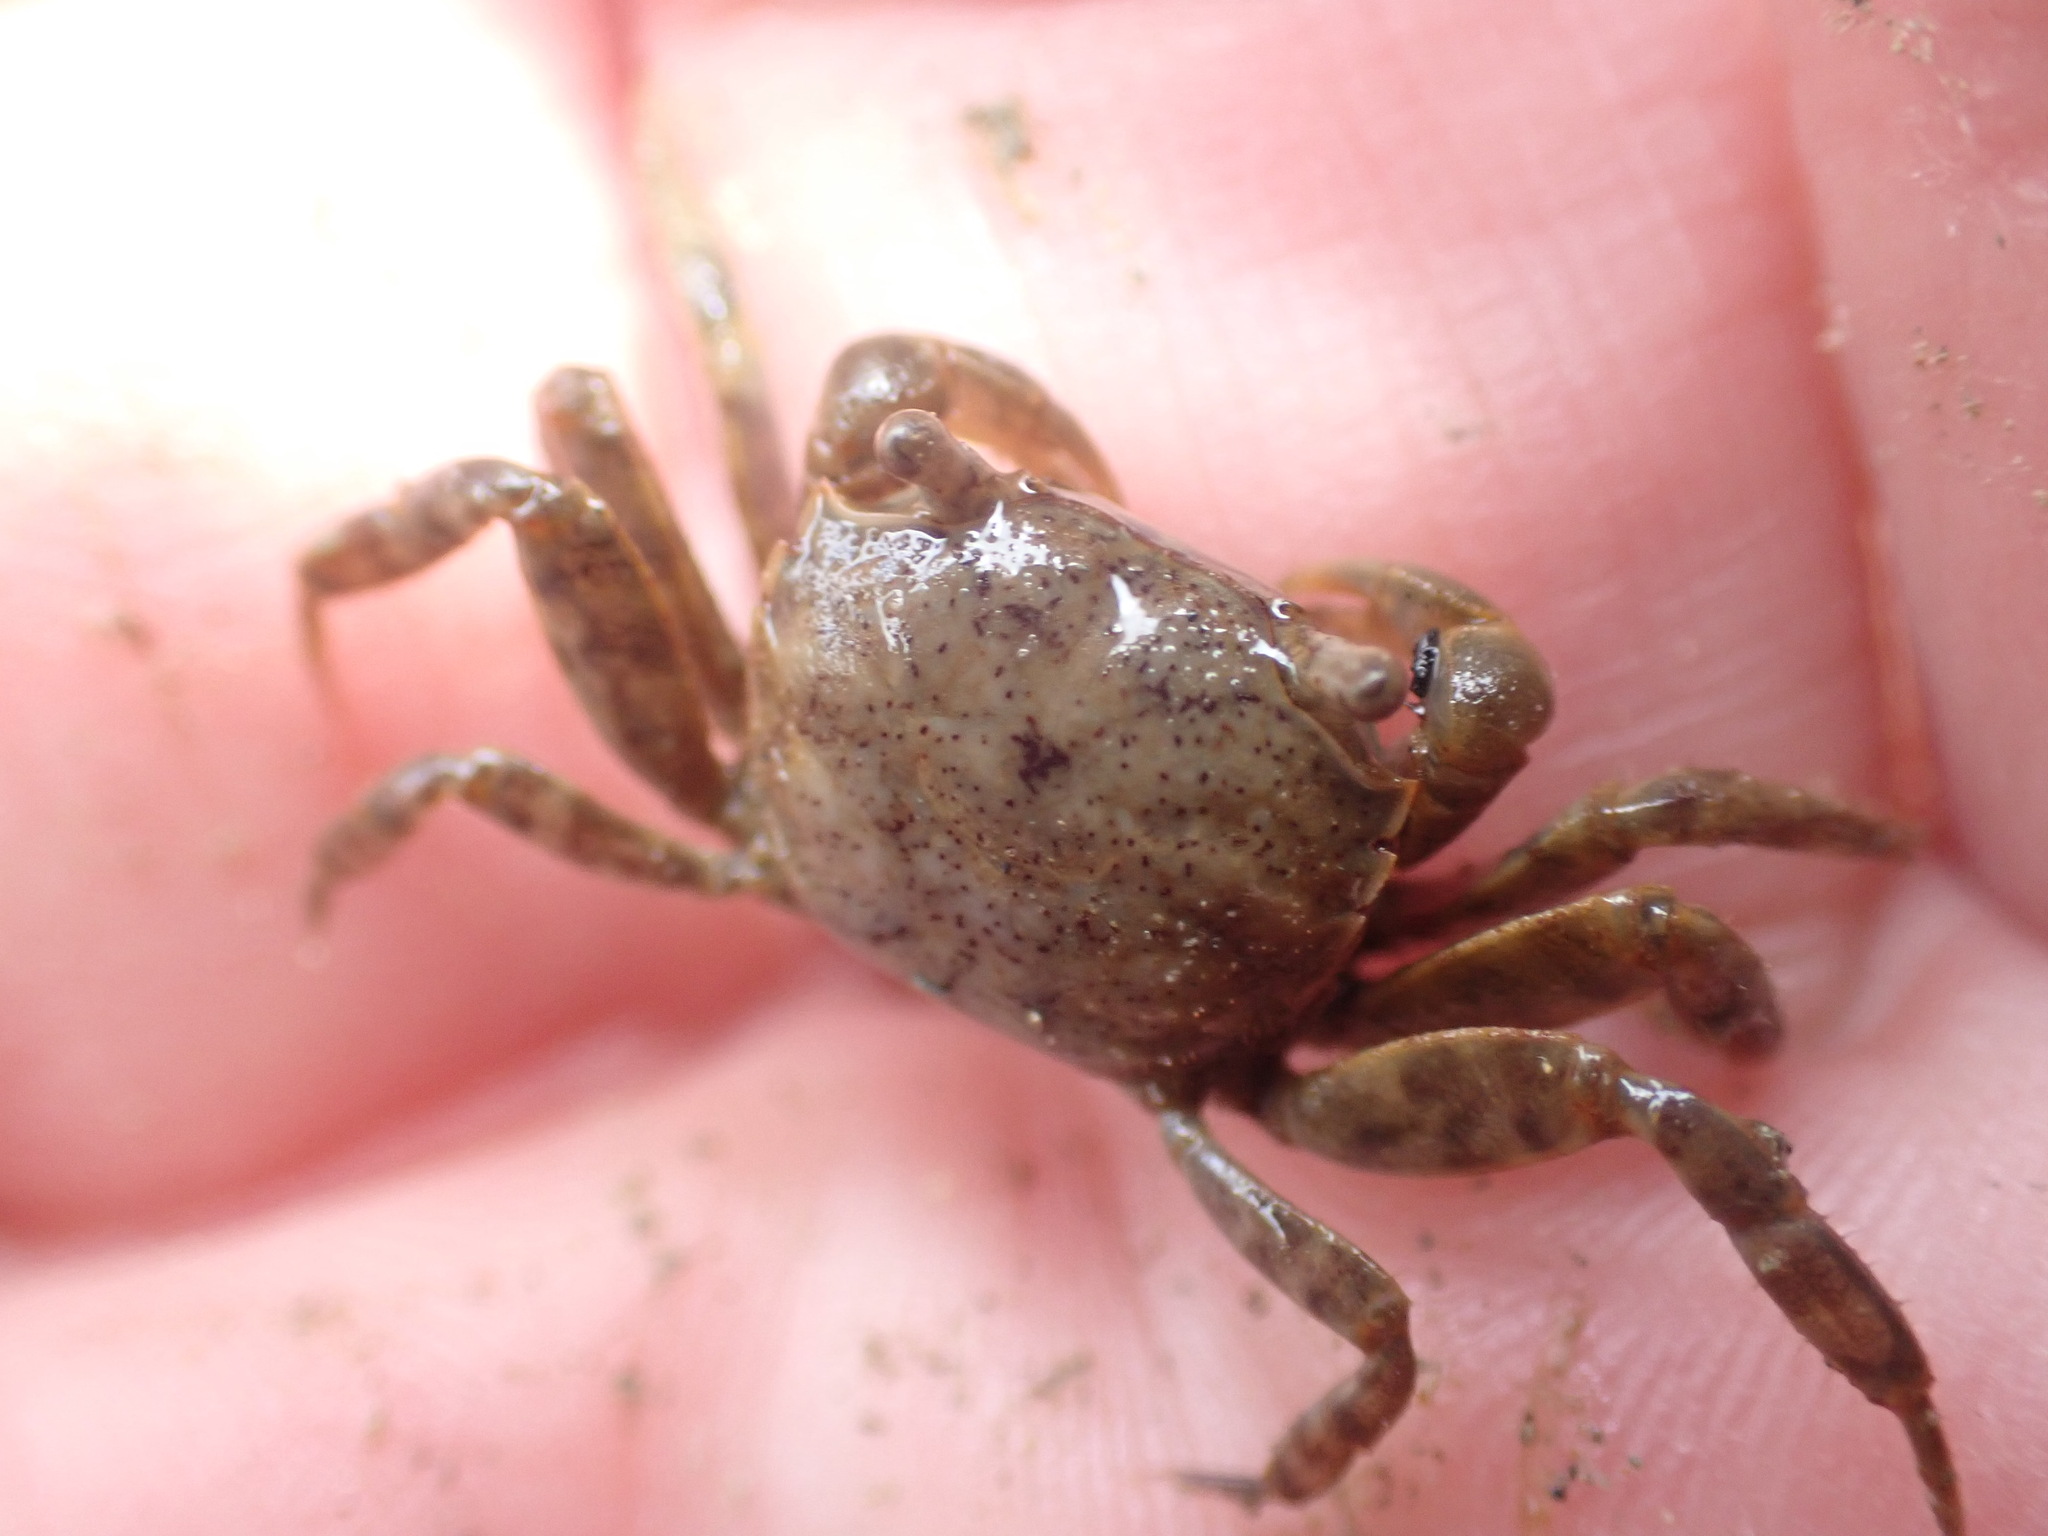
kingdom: Animalia
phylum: Arthropoda
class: Malacostraca
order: Decapoda
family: Varunidae
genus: Austrohelice
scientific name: Austrohelice crassa
